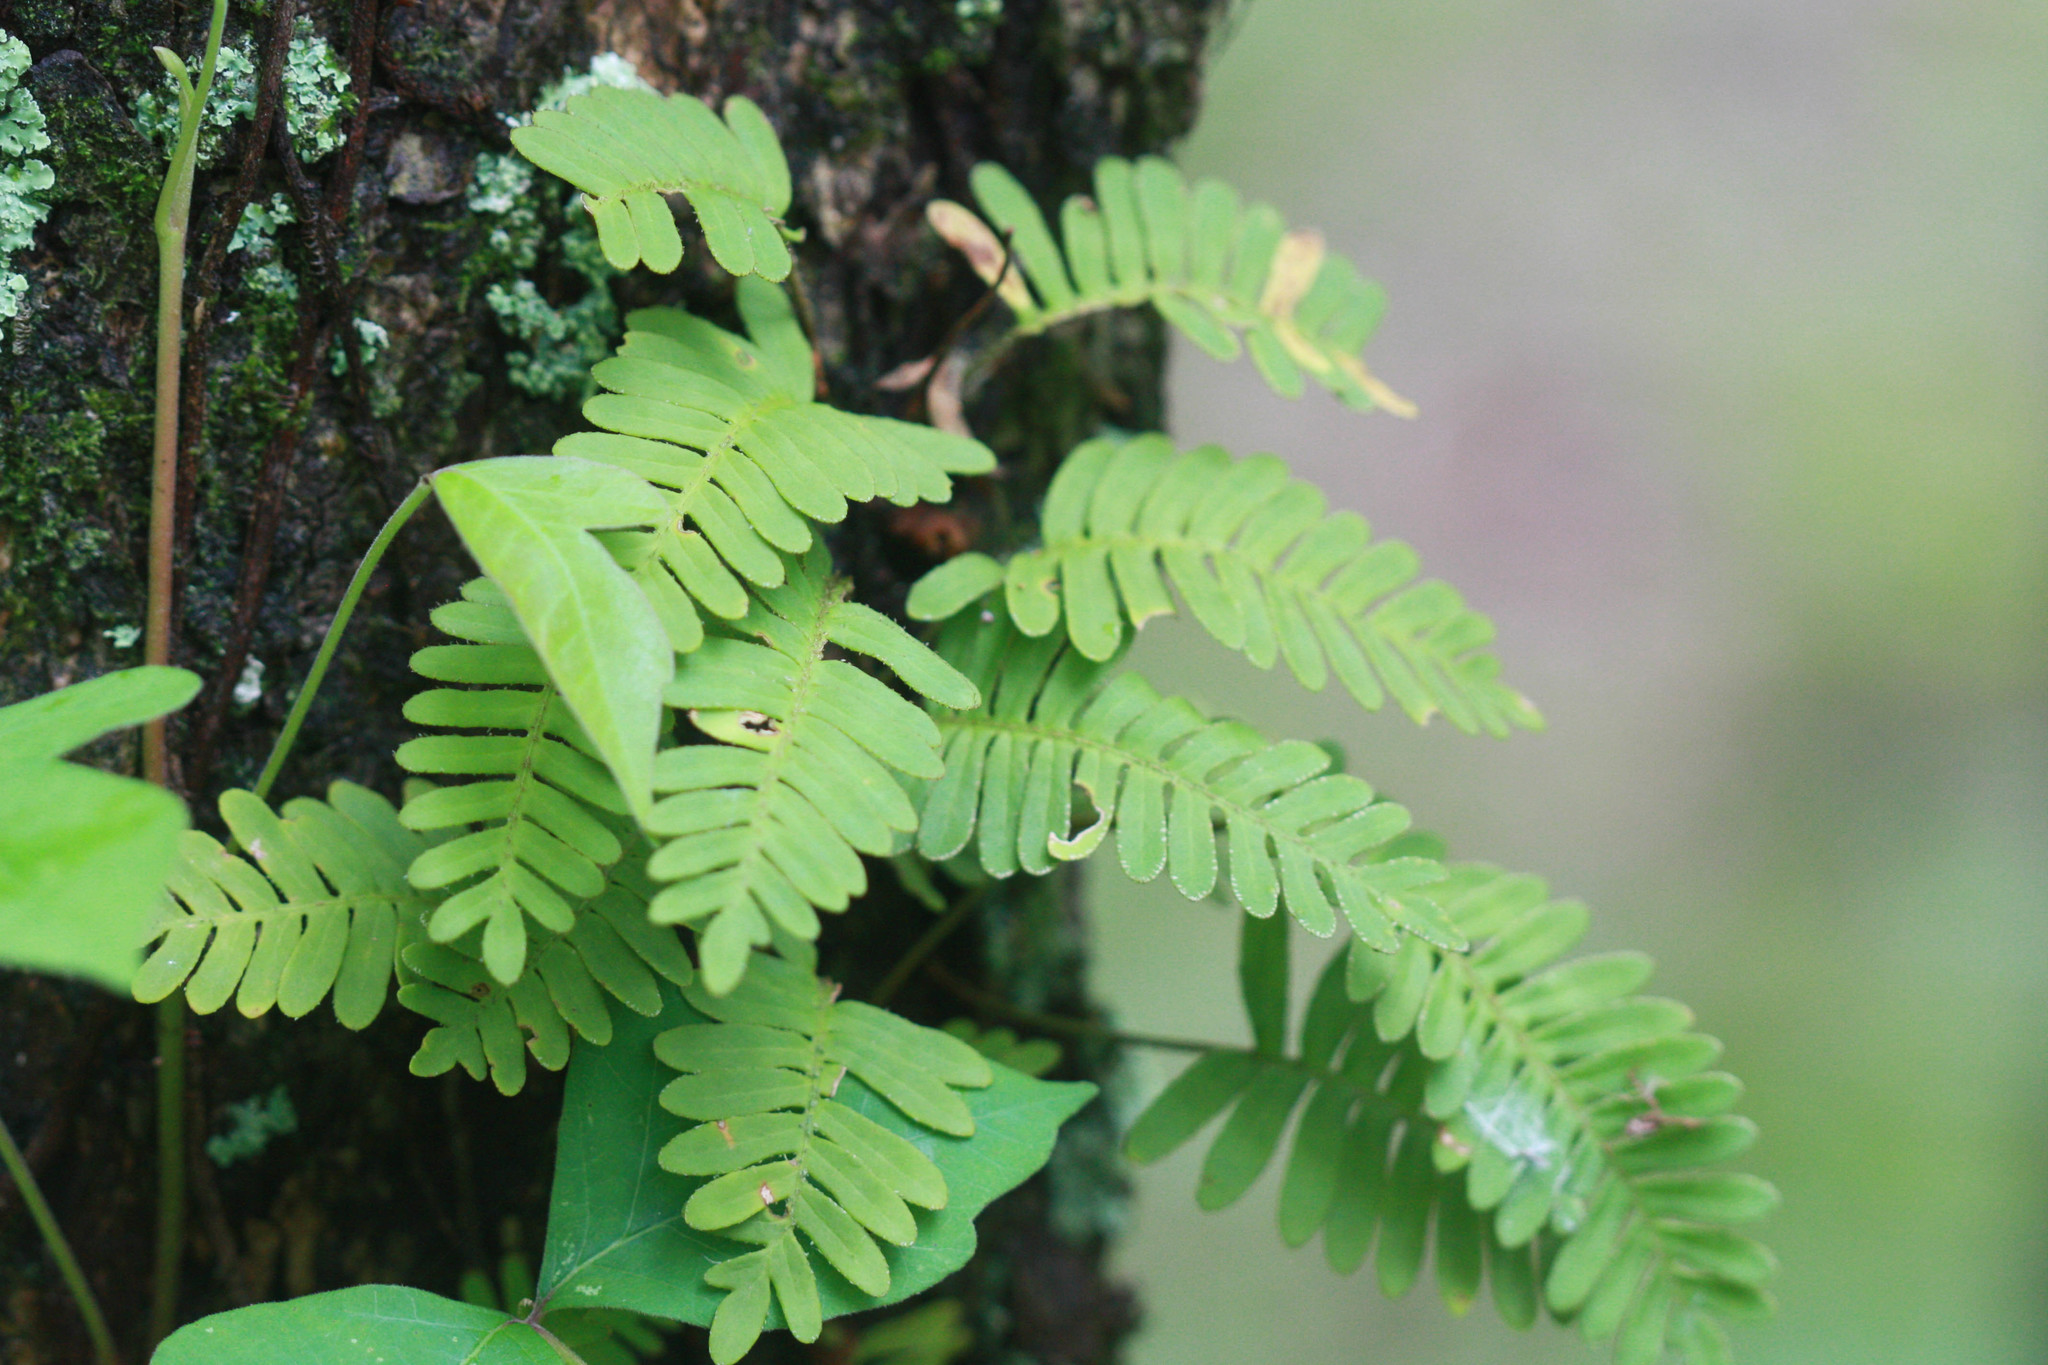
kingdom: Plantae
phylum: Tracheophyta
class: Polypodiopsida
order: Polypodiales
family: Polypodiaceae
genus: Pleopeltis
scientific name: Pleopeltis michauxiana
